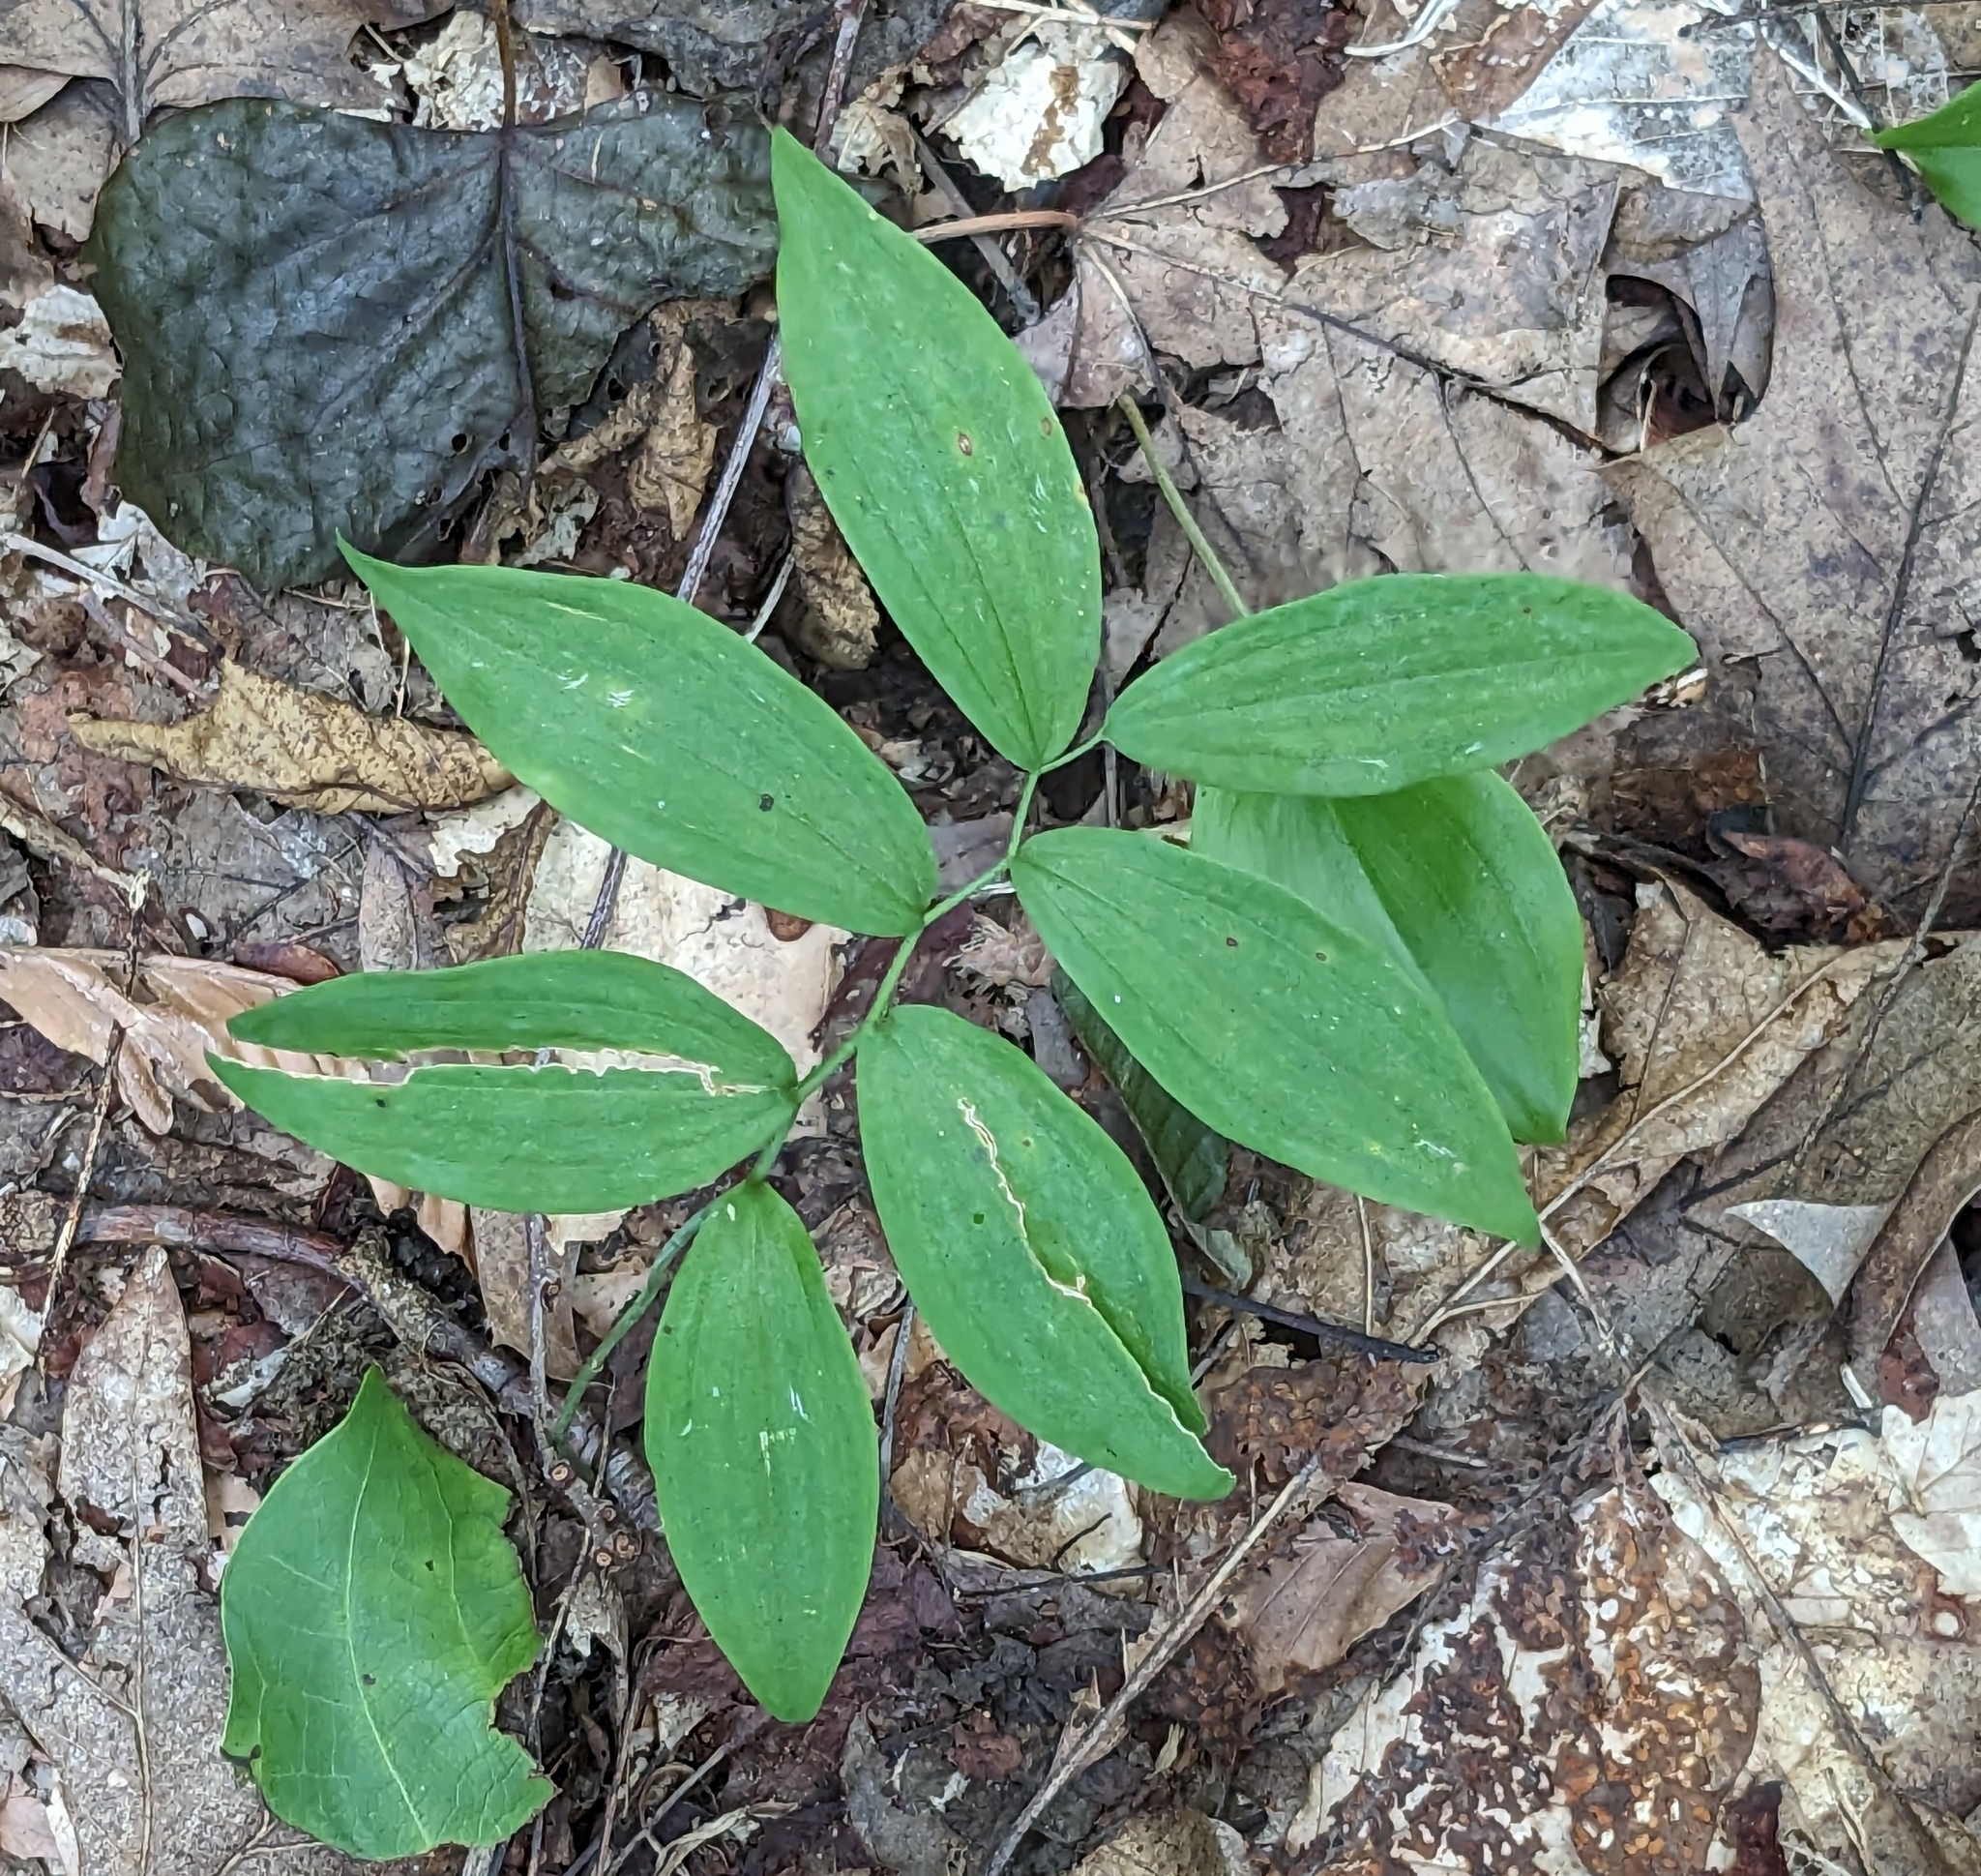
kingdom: Plantae
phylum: Tracheophyta
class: Liliopsida
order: Asparagales
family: Asparagaceae
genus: Polygonatum
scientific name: Polygonatum pubescens
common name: Downy solomon's seal
